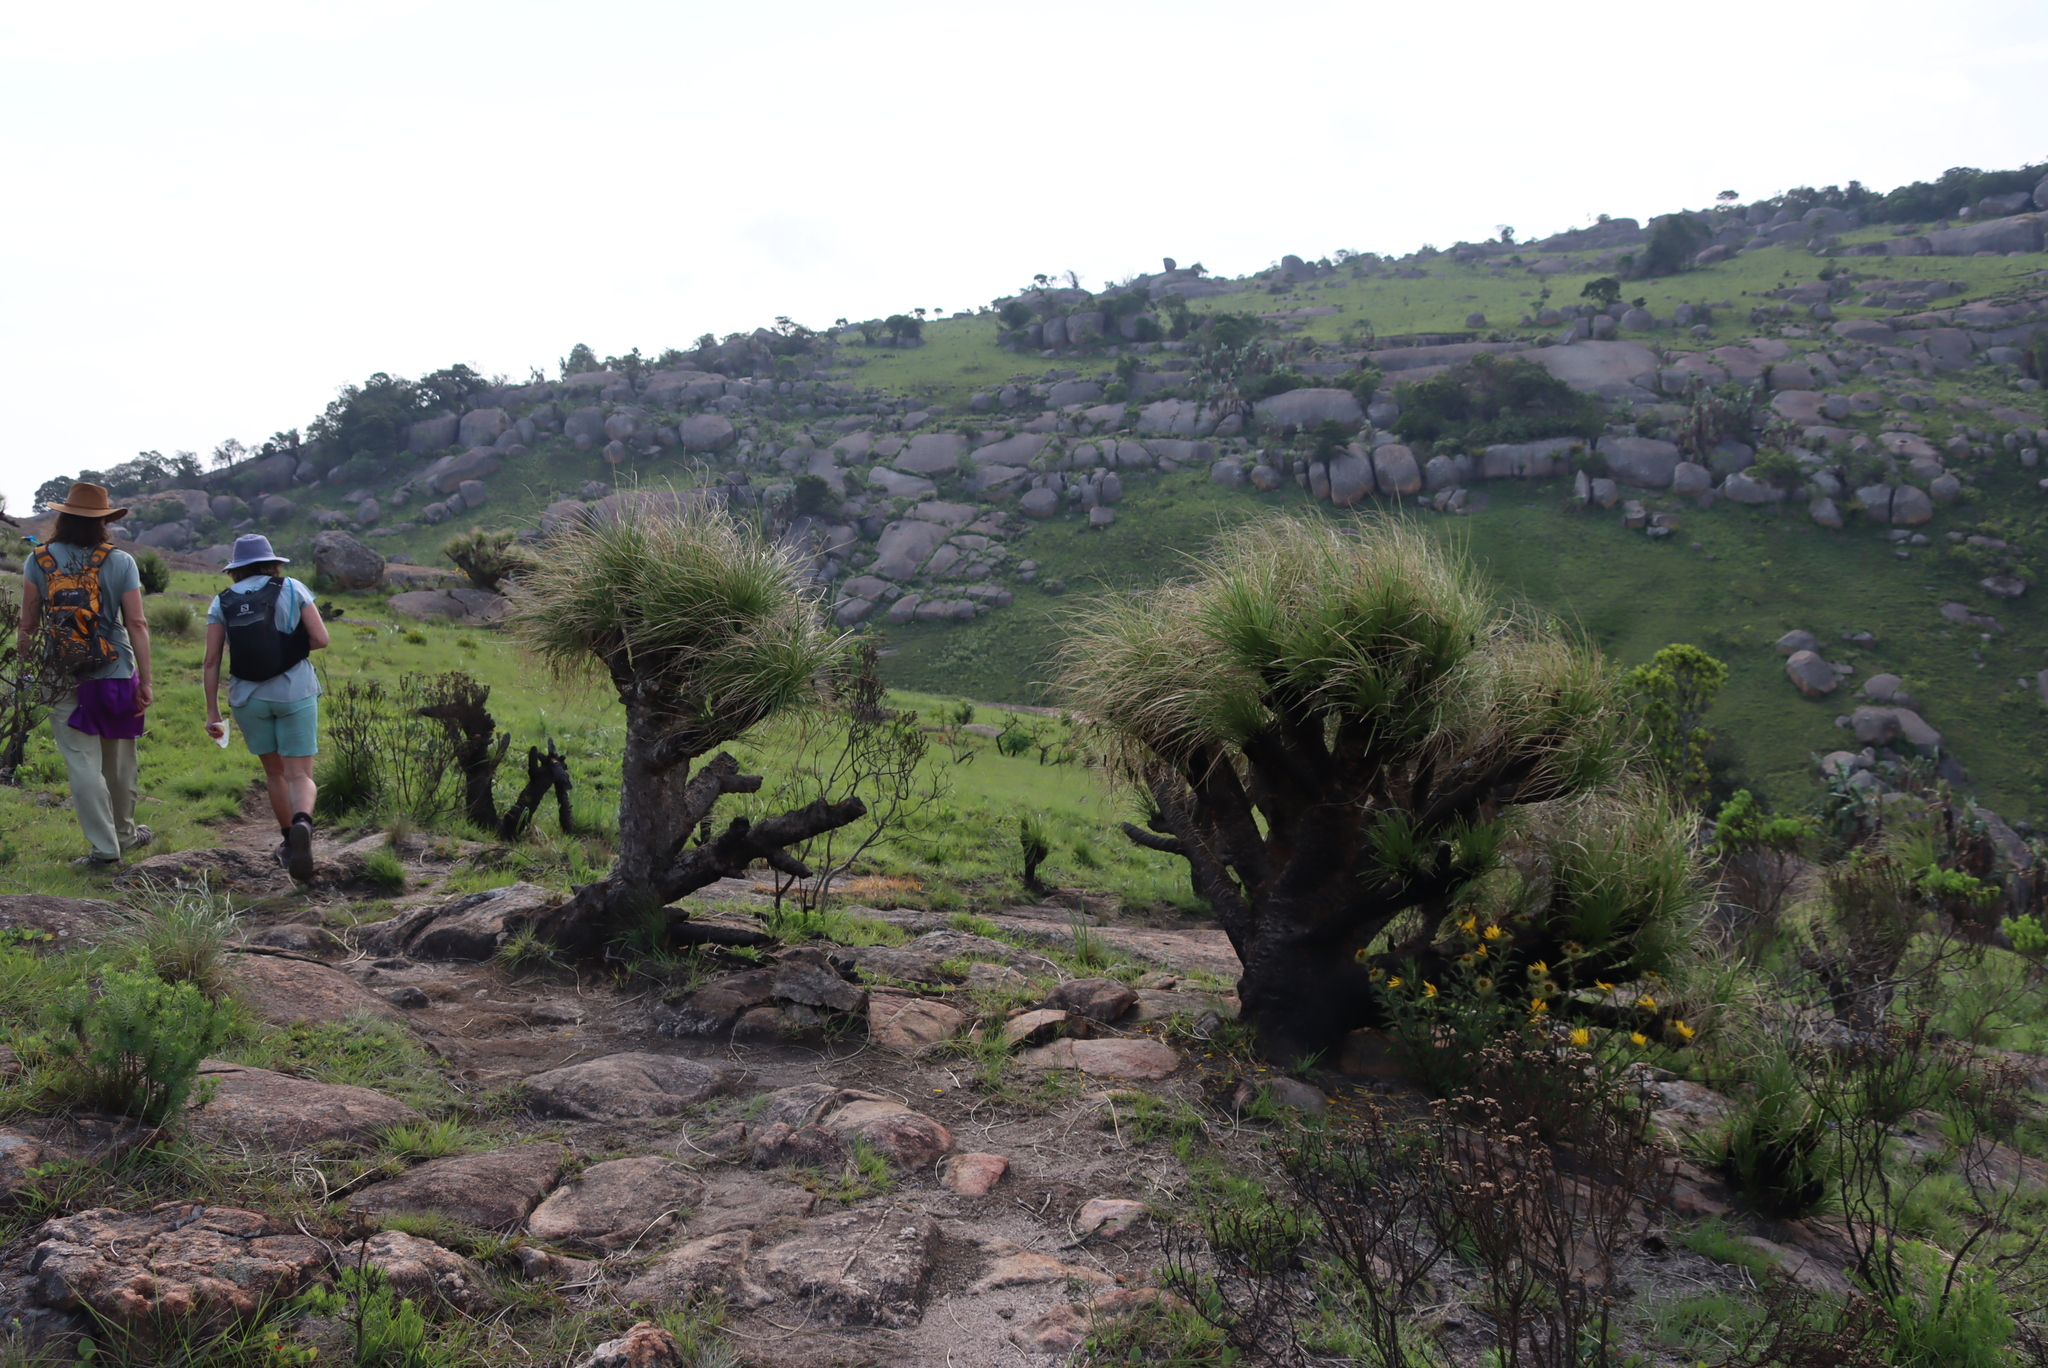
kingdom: Plantae
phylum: Tracheophyta
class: Liliopsida
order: Pandanales
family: Velloziaceae
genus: Xerophyta
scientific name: Xerophyta retinervis
